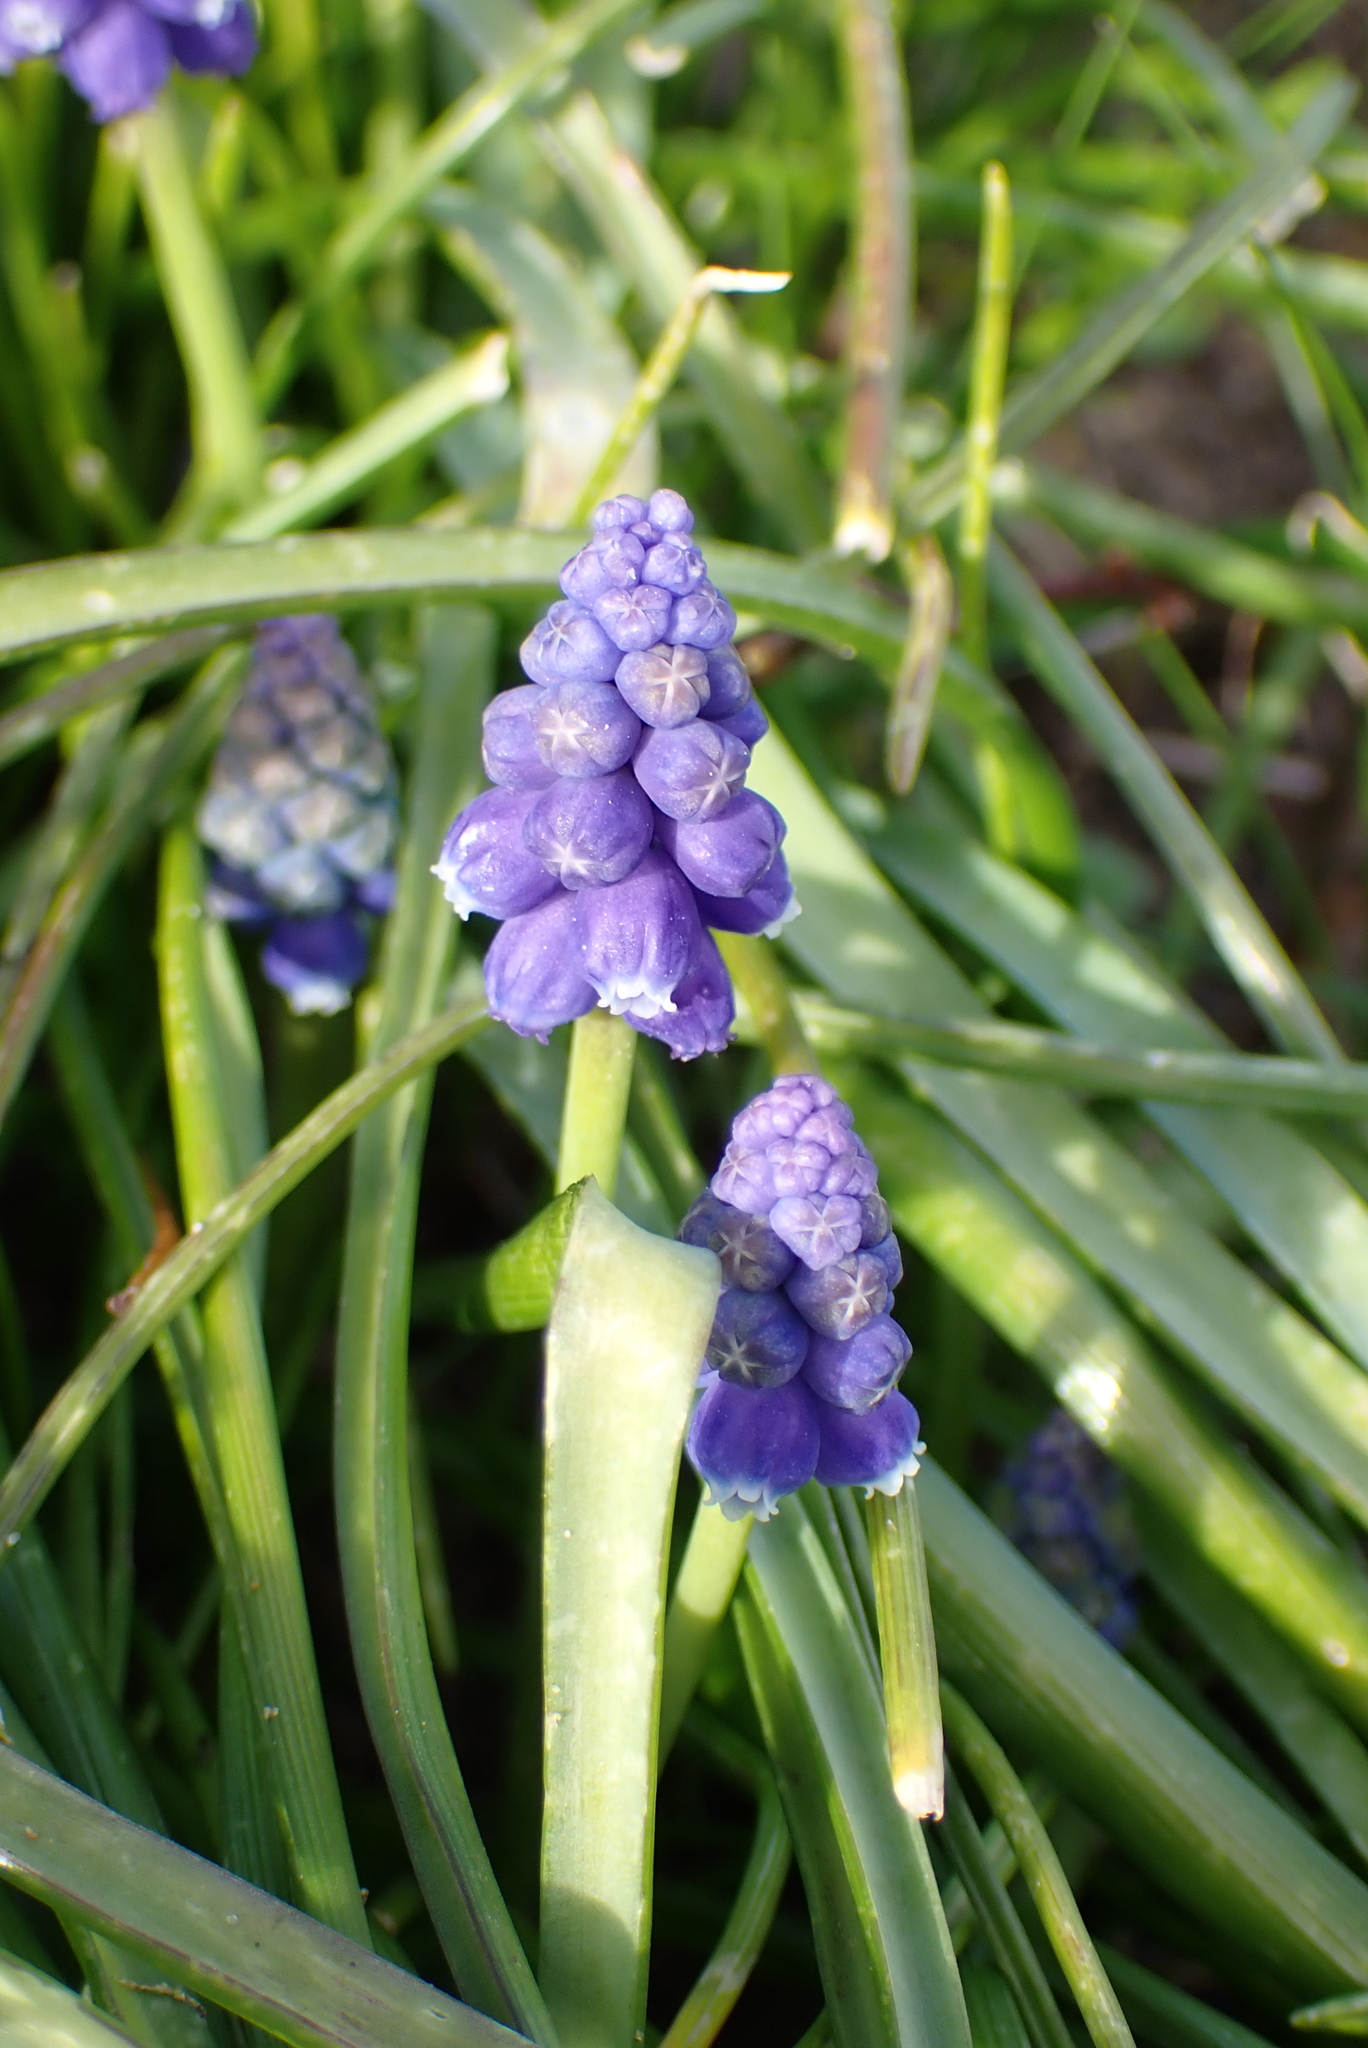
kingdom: Plantae
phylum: Tracheophyta
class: Liliopsida
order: Asparagales
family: Asparagaceae
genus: Muscari
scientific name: Muscari armeniacum
